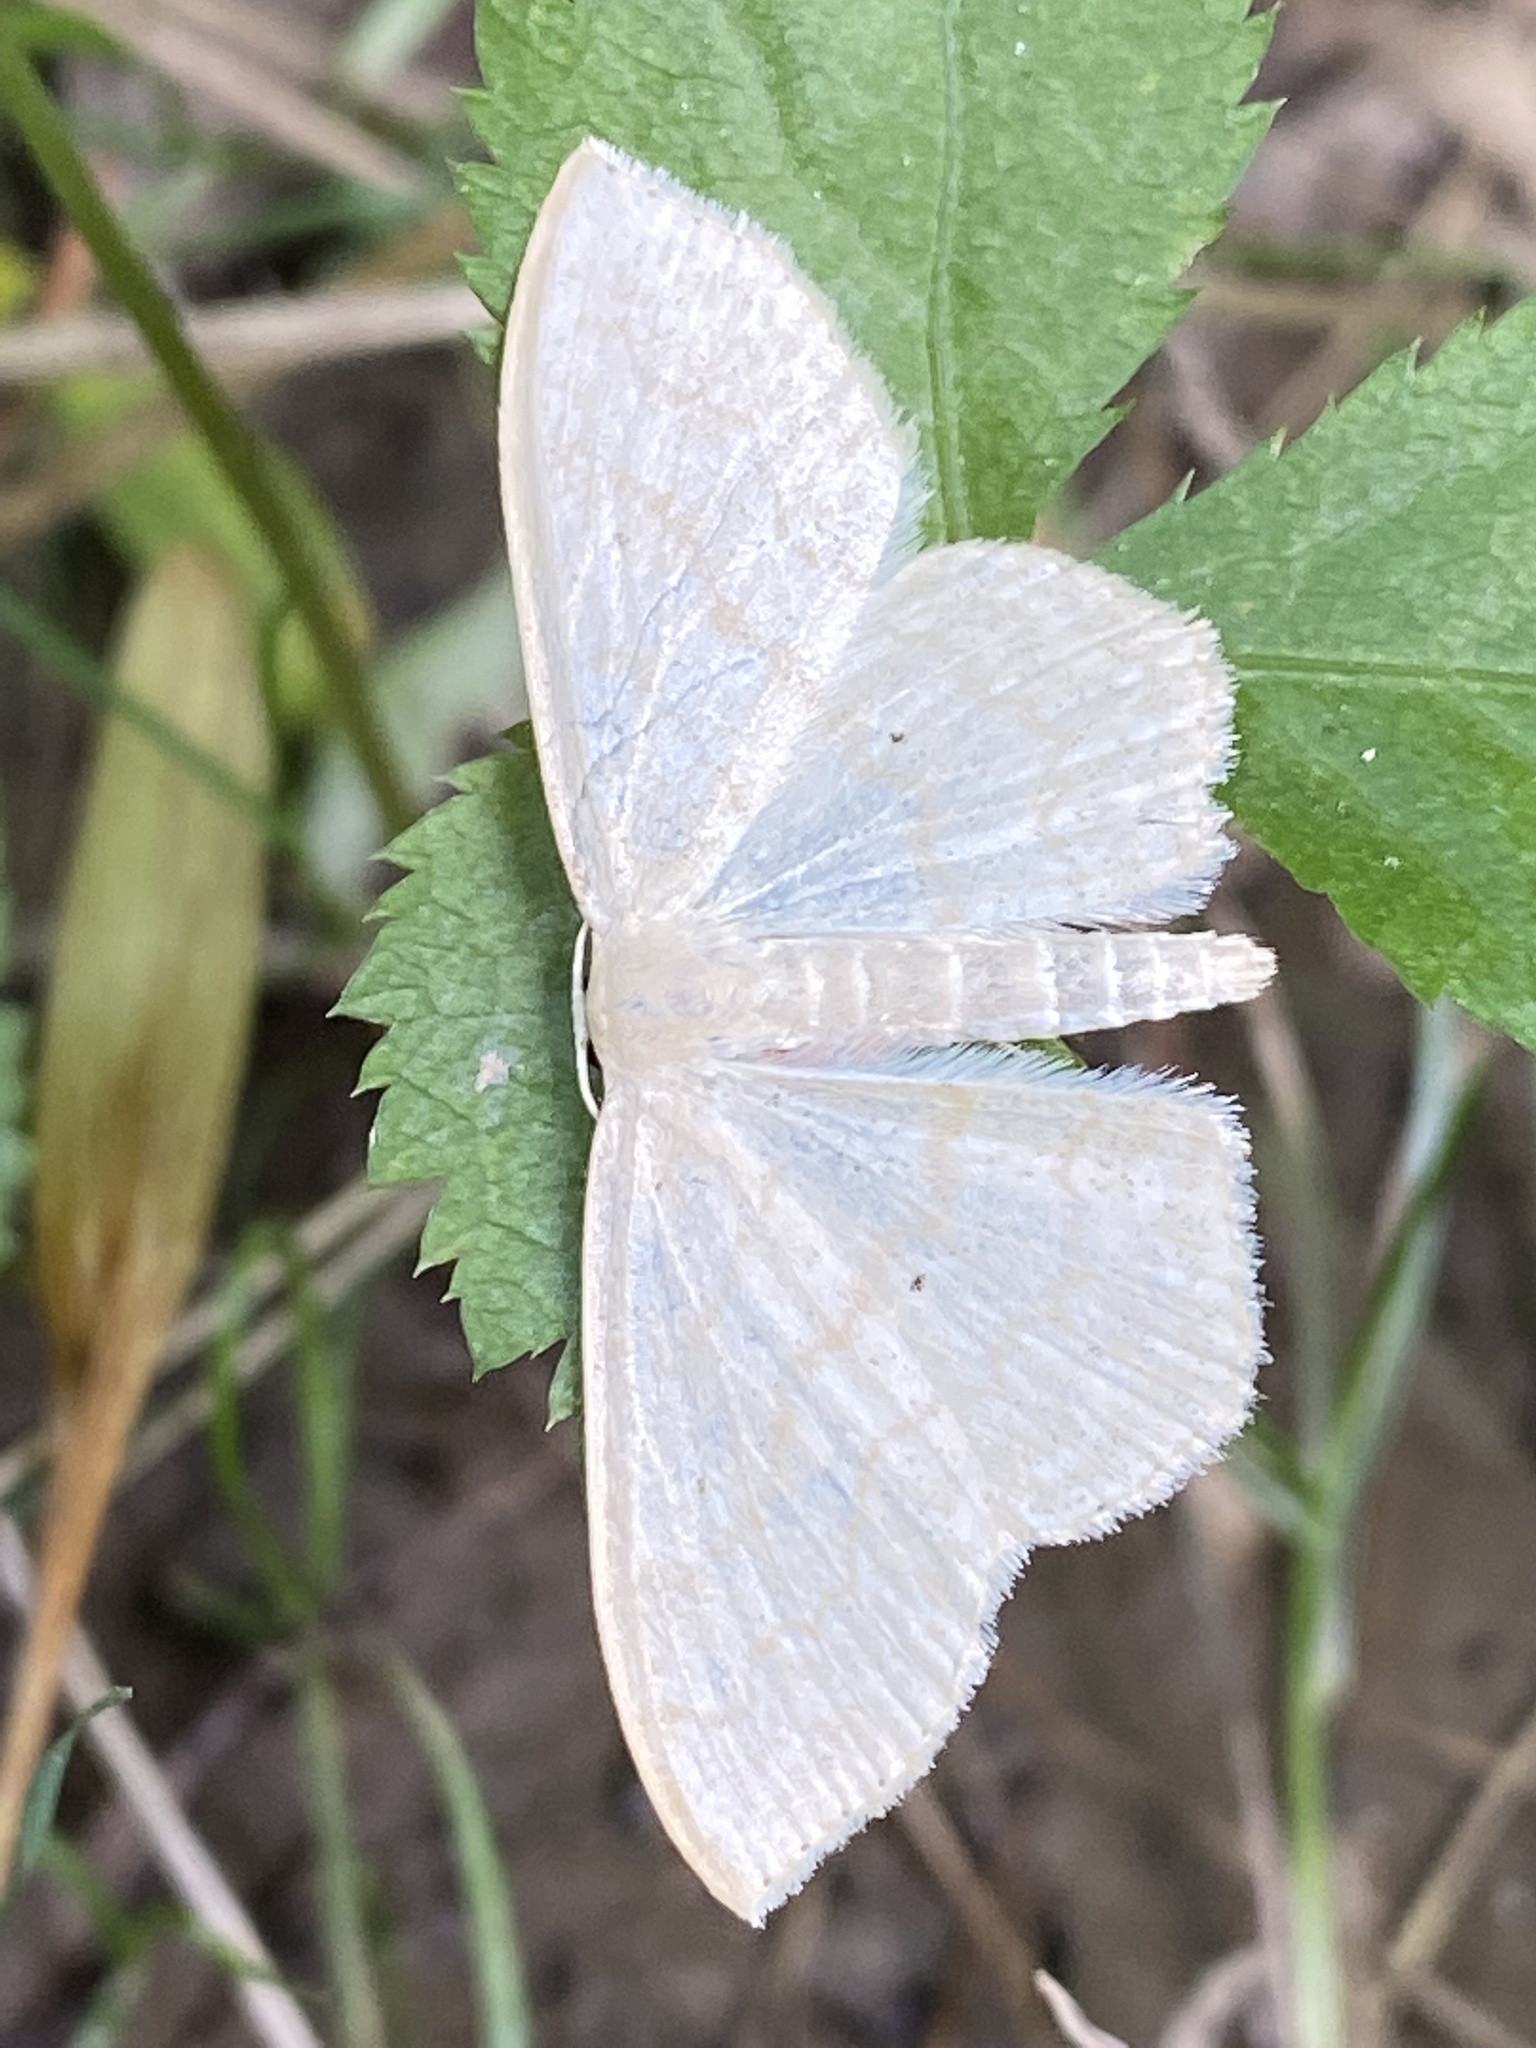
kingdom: Animalia
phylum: Arthropoda
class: Insecta
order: Lepidoptera
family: Geometridae
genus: Scopula
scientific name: Scopula limboundata
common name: Large lace border
